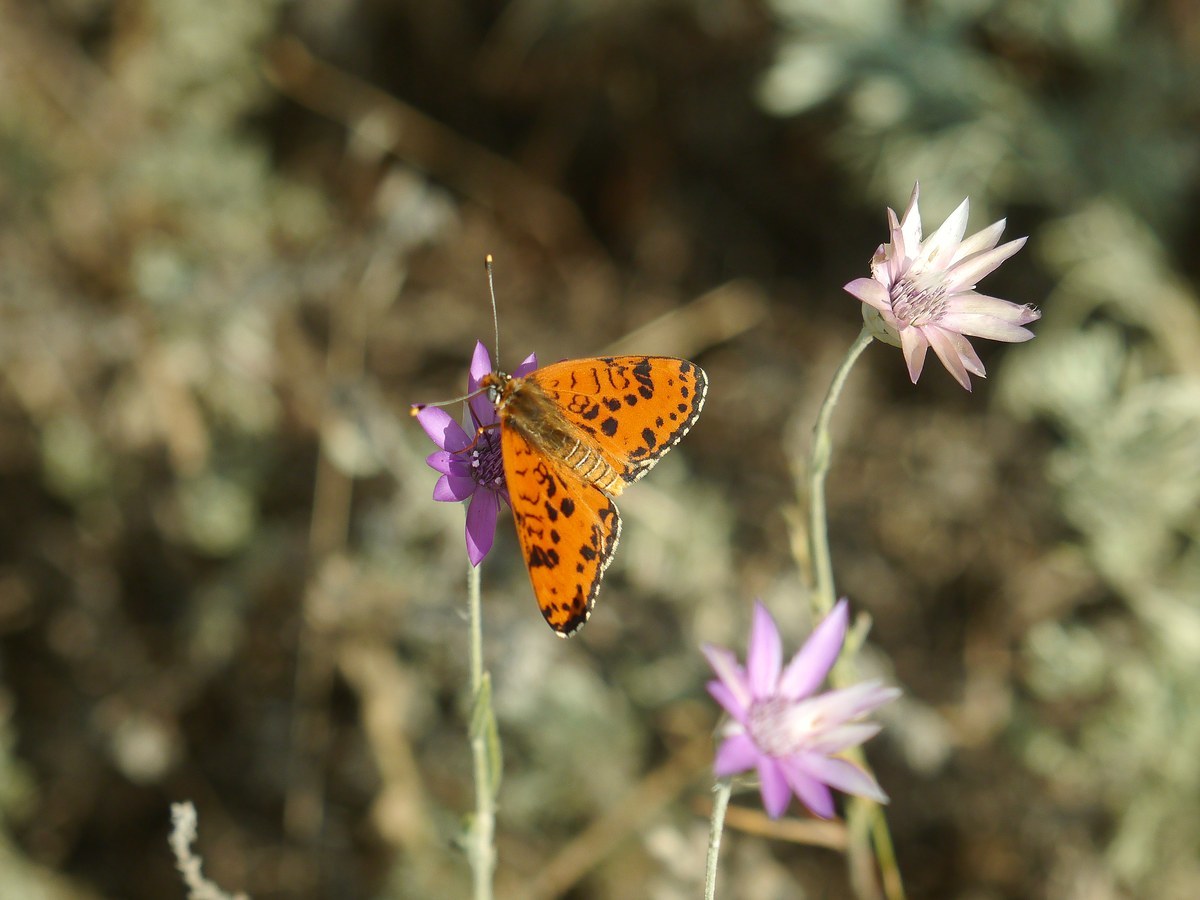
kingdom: Animalia
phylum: Arthropoda
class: Insecta
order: Lepidoptera
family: Nymphalidae
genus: Melitaea
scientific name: Melitaea didyma
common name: Spotted fritillary
